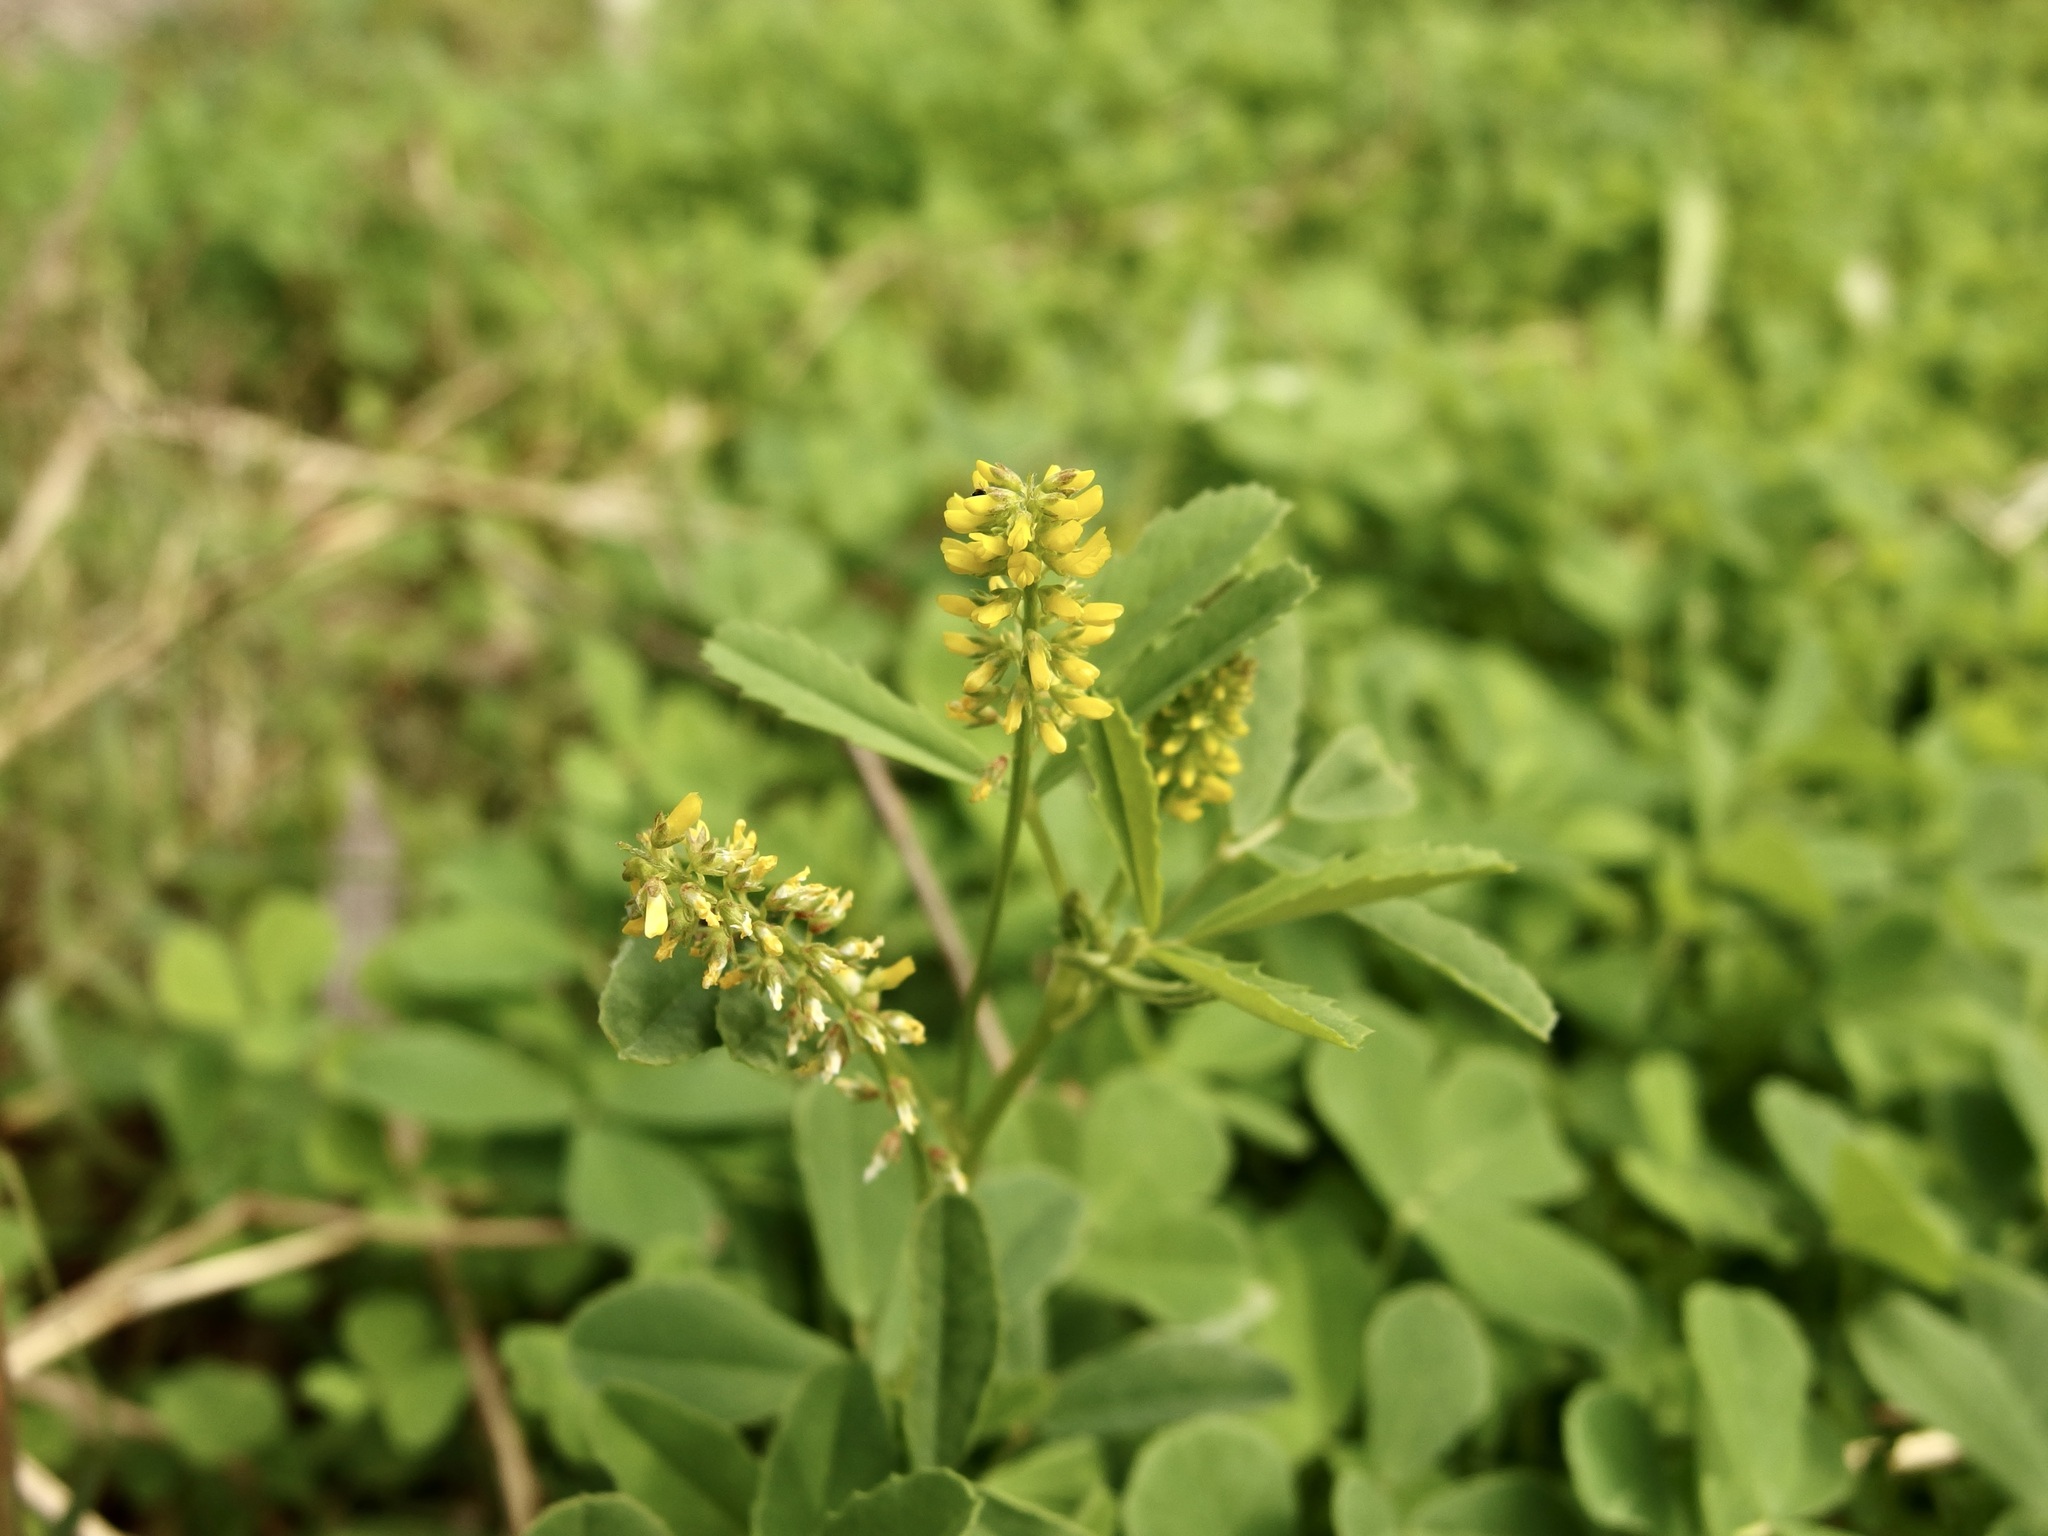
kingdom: Plantae
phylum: Tracheophyta
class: Magnoliopsida
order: Fabales
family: Fabaceae
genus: Melilotus
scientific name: Melilotus indicus
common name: Small melilot
